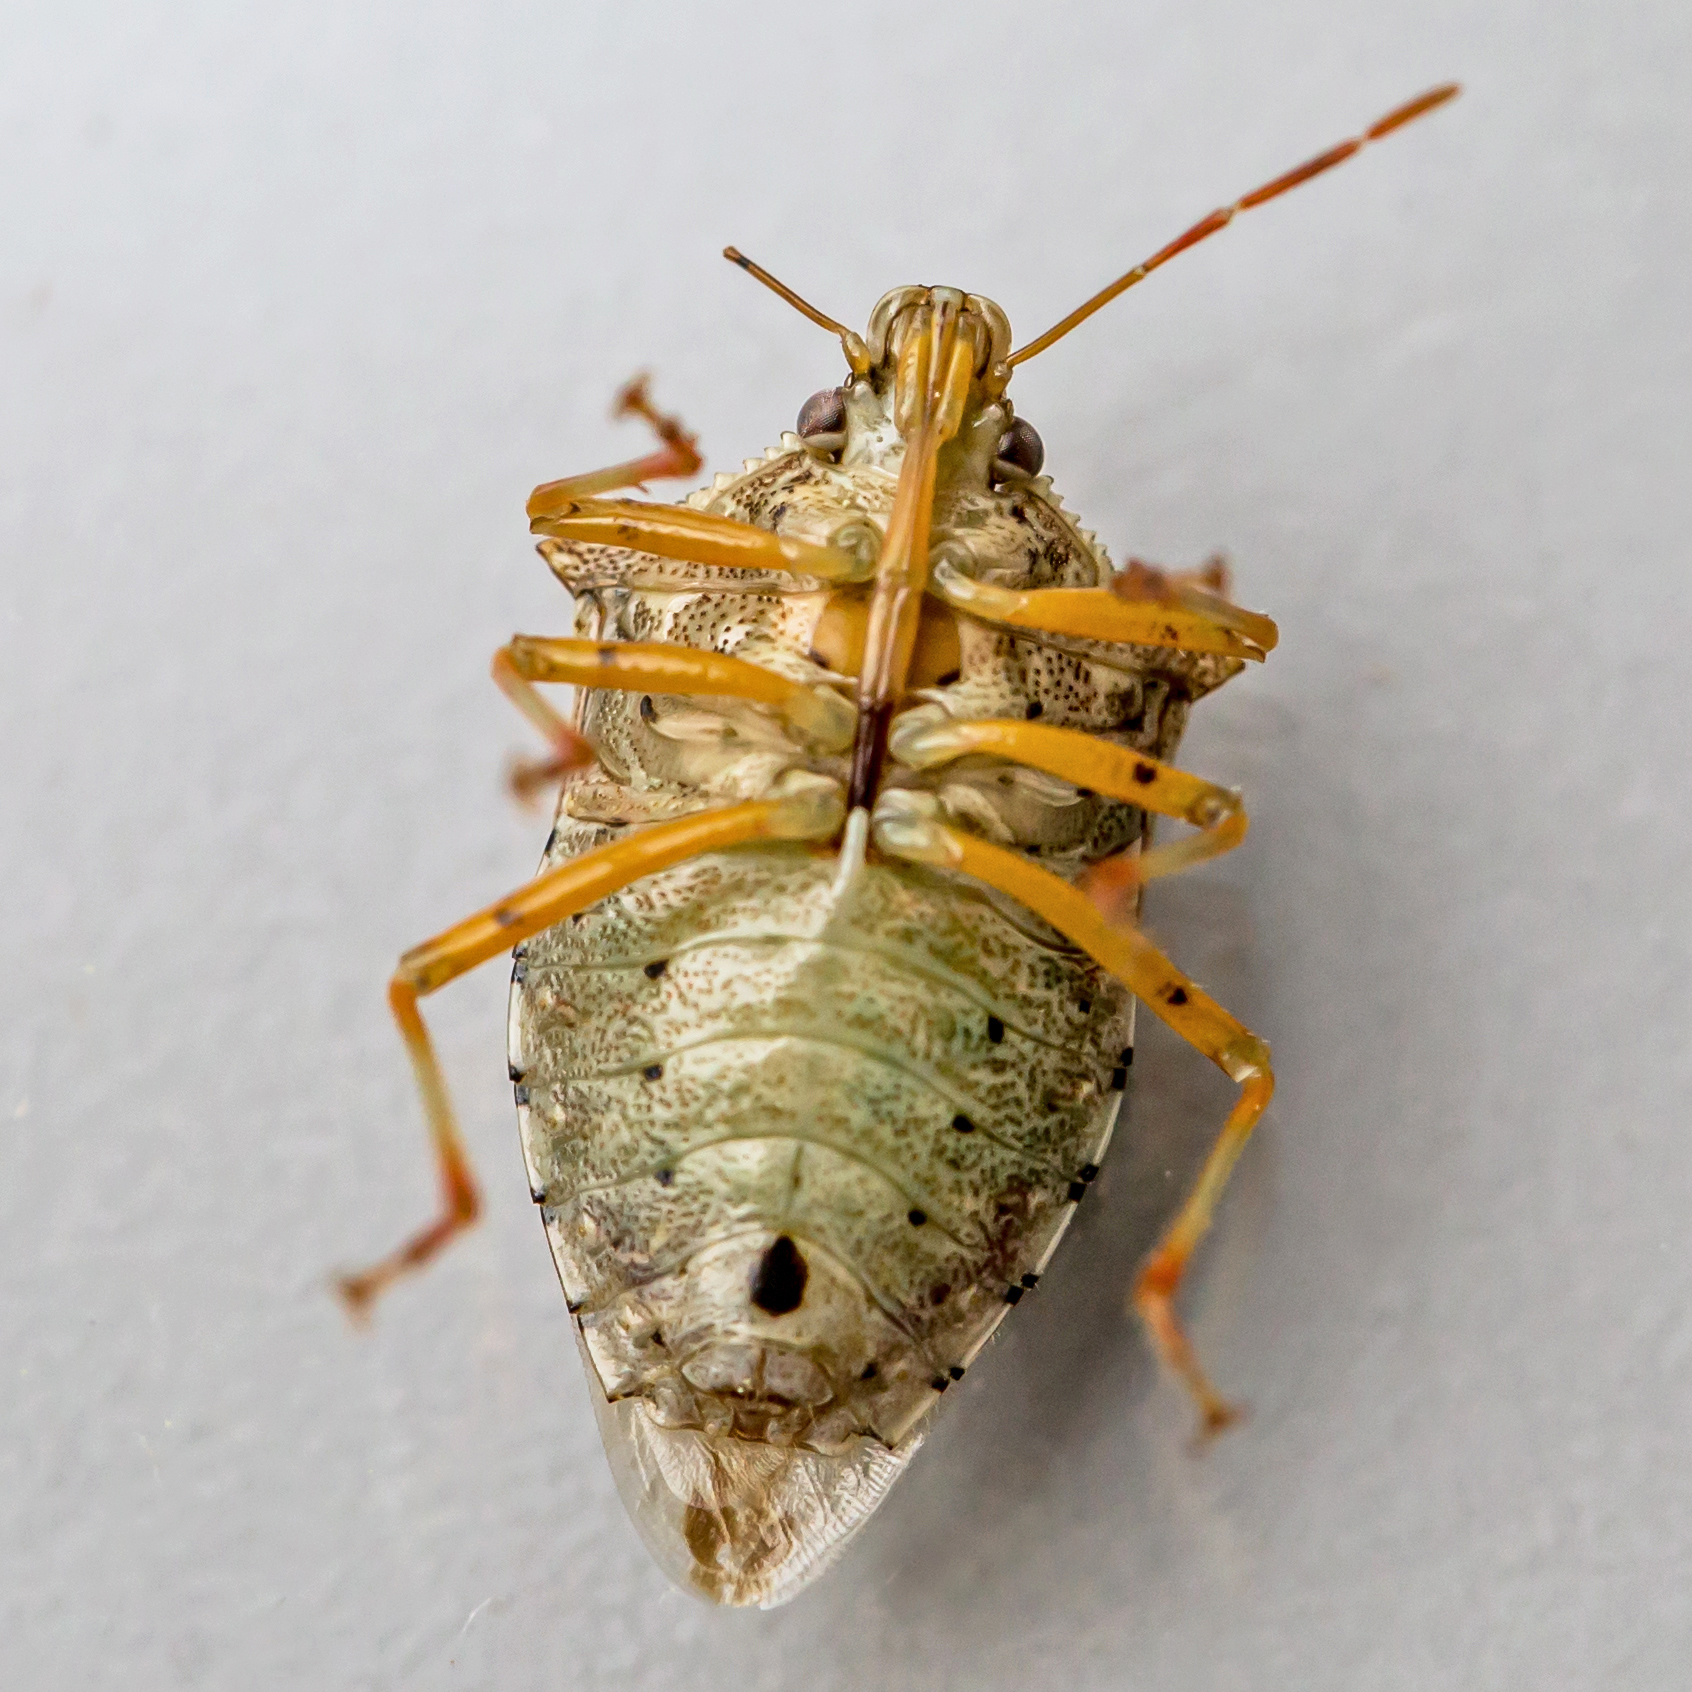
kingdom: Animalia
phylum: Arthropoda
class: Insecta
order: Hemiptera
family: Pentatomidae
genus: Podisus
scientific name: Podisus maculiventris
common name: Spined soldier bug
